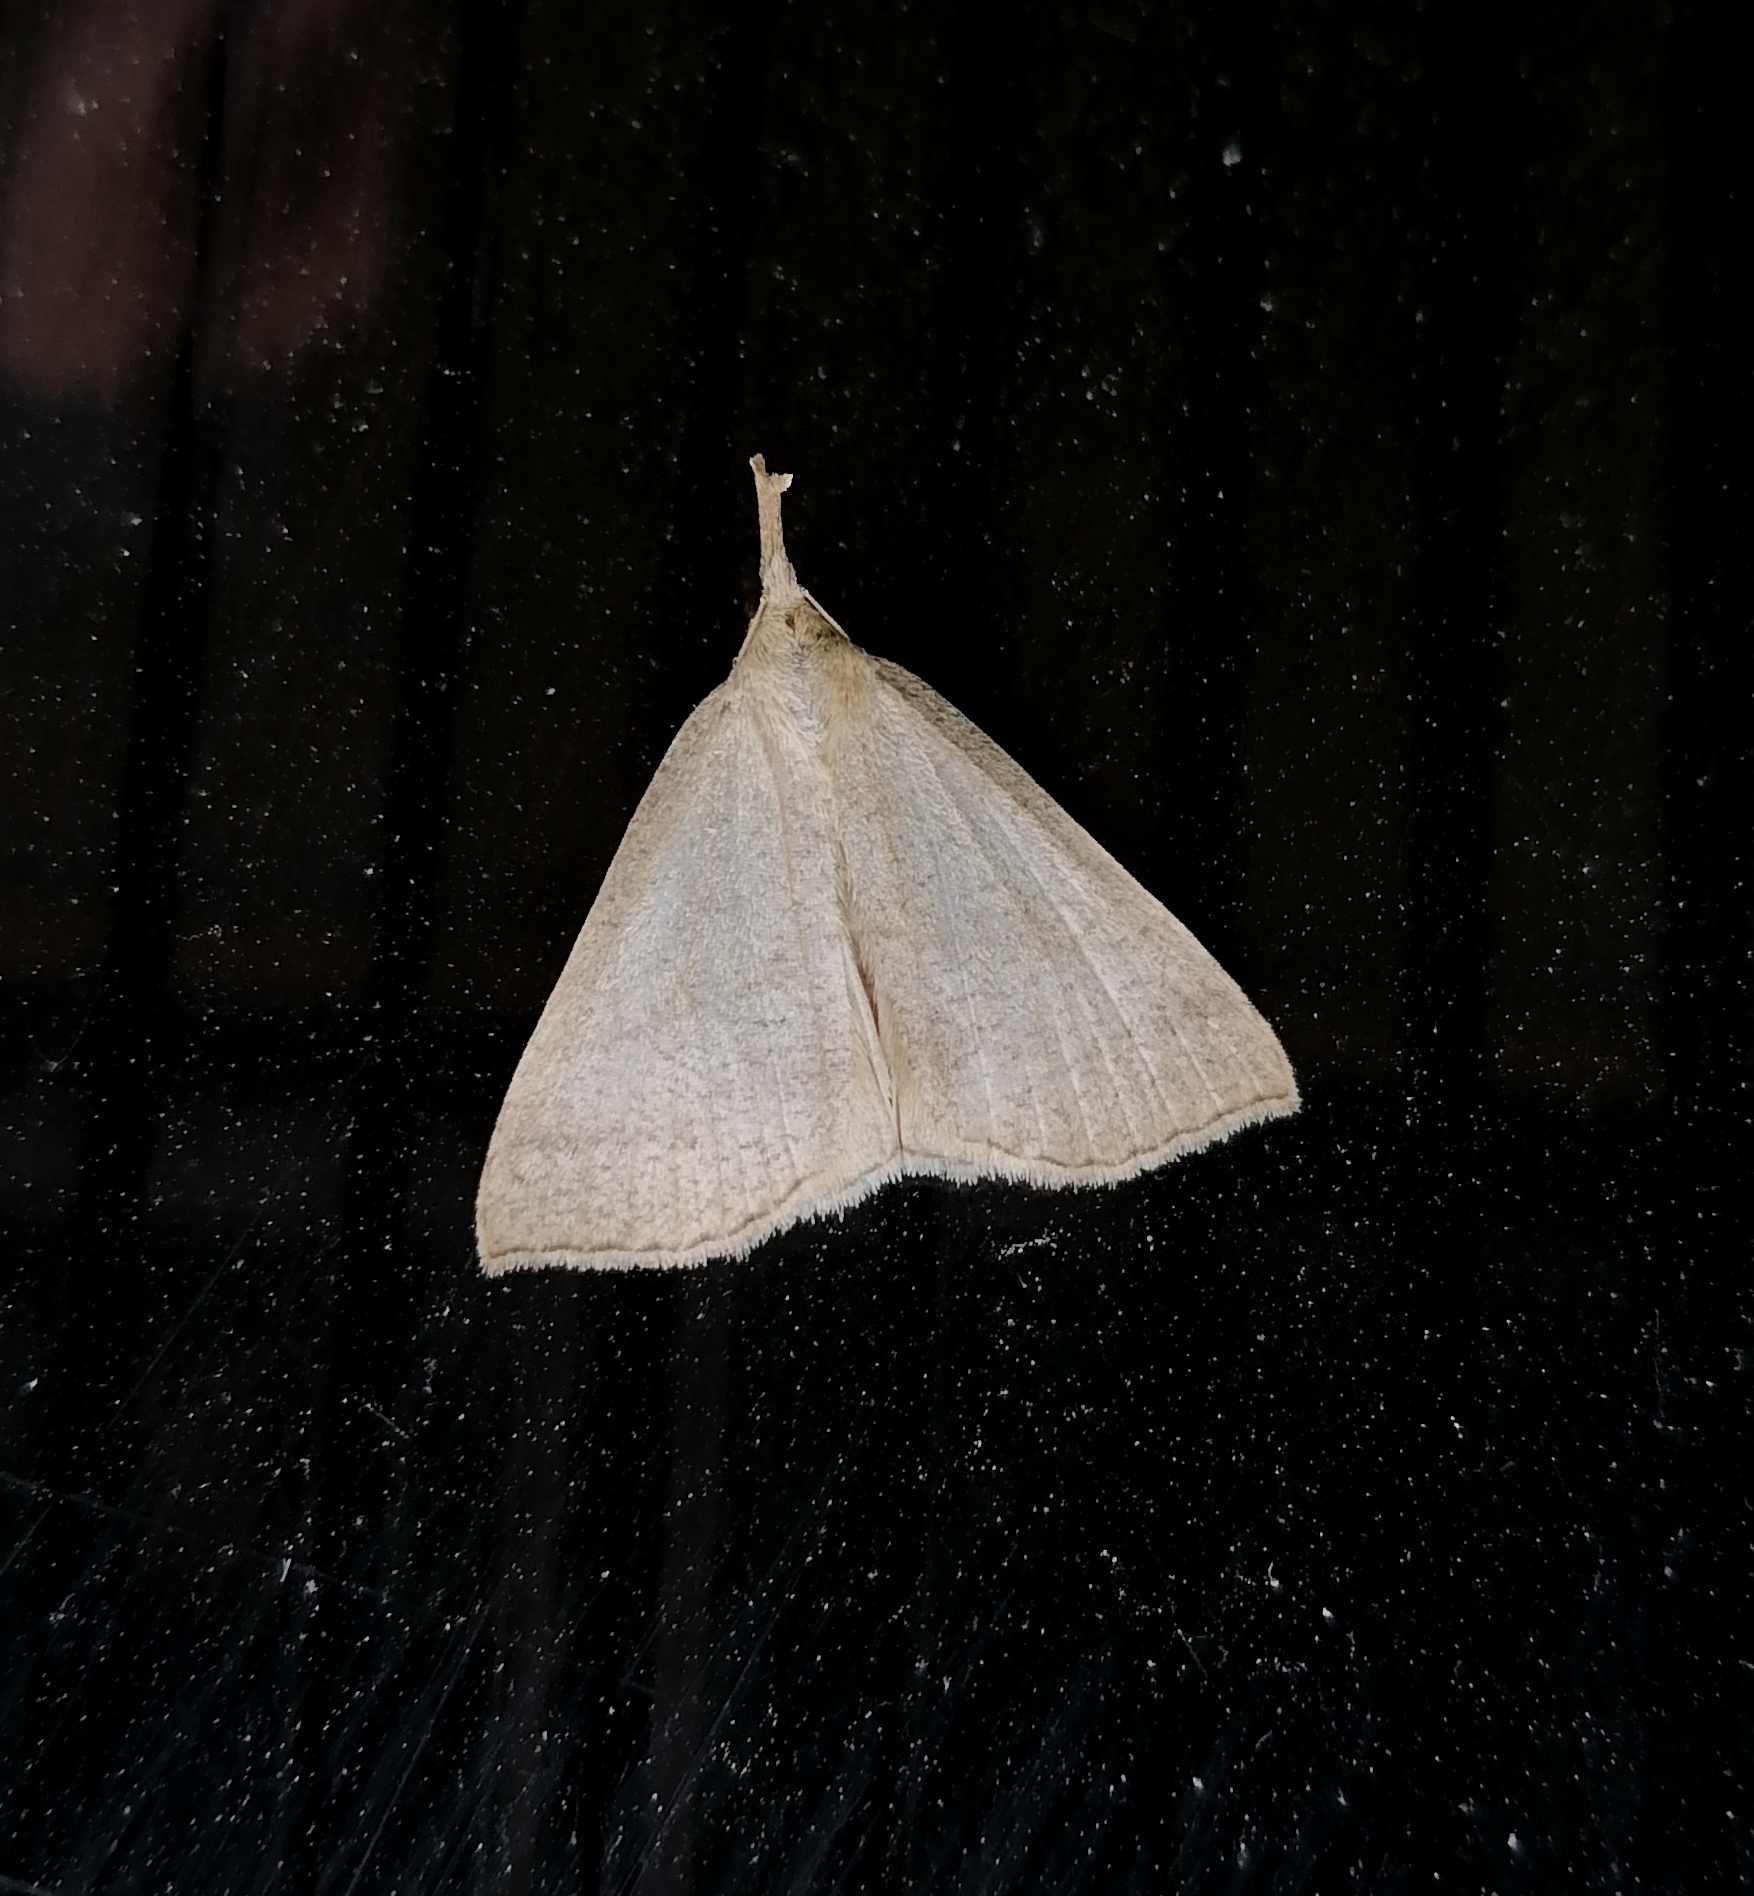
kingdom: Animalia
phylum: Arthropoda
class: Insecta
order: Lepidoptera
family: Erebidae
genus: Polypogon
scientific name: Polypogon tentacularia
